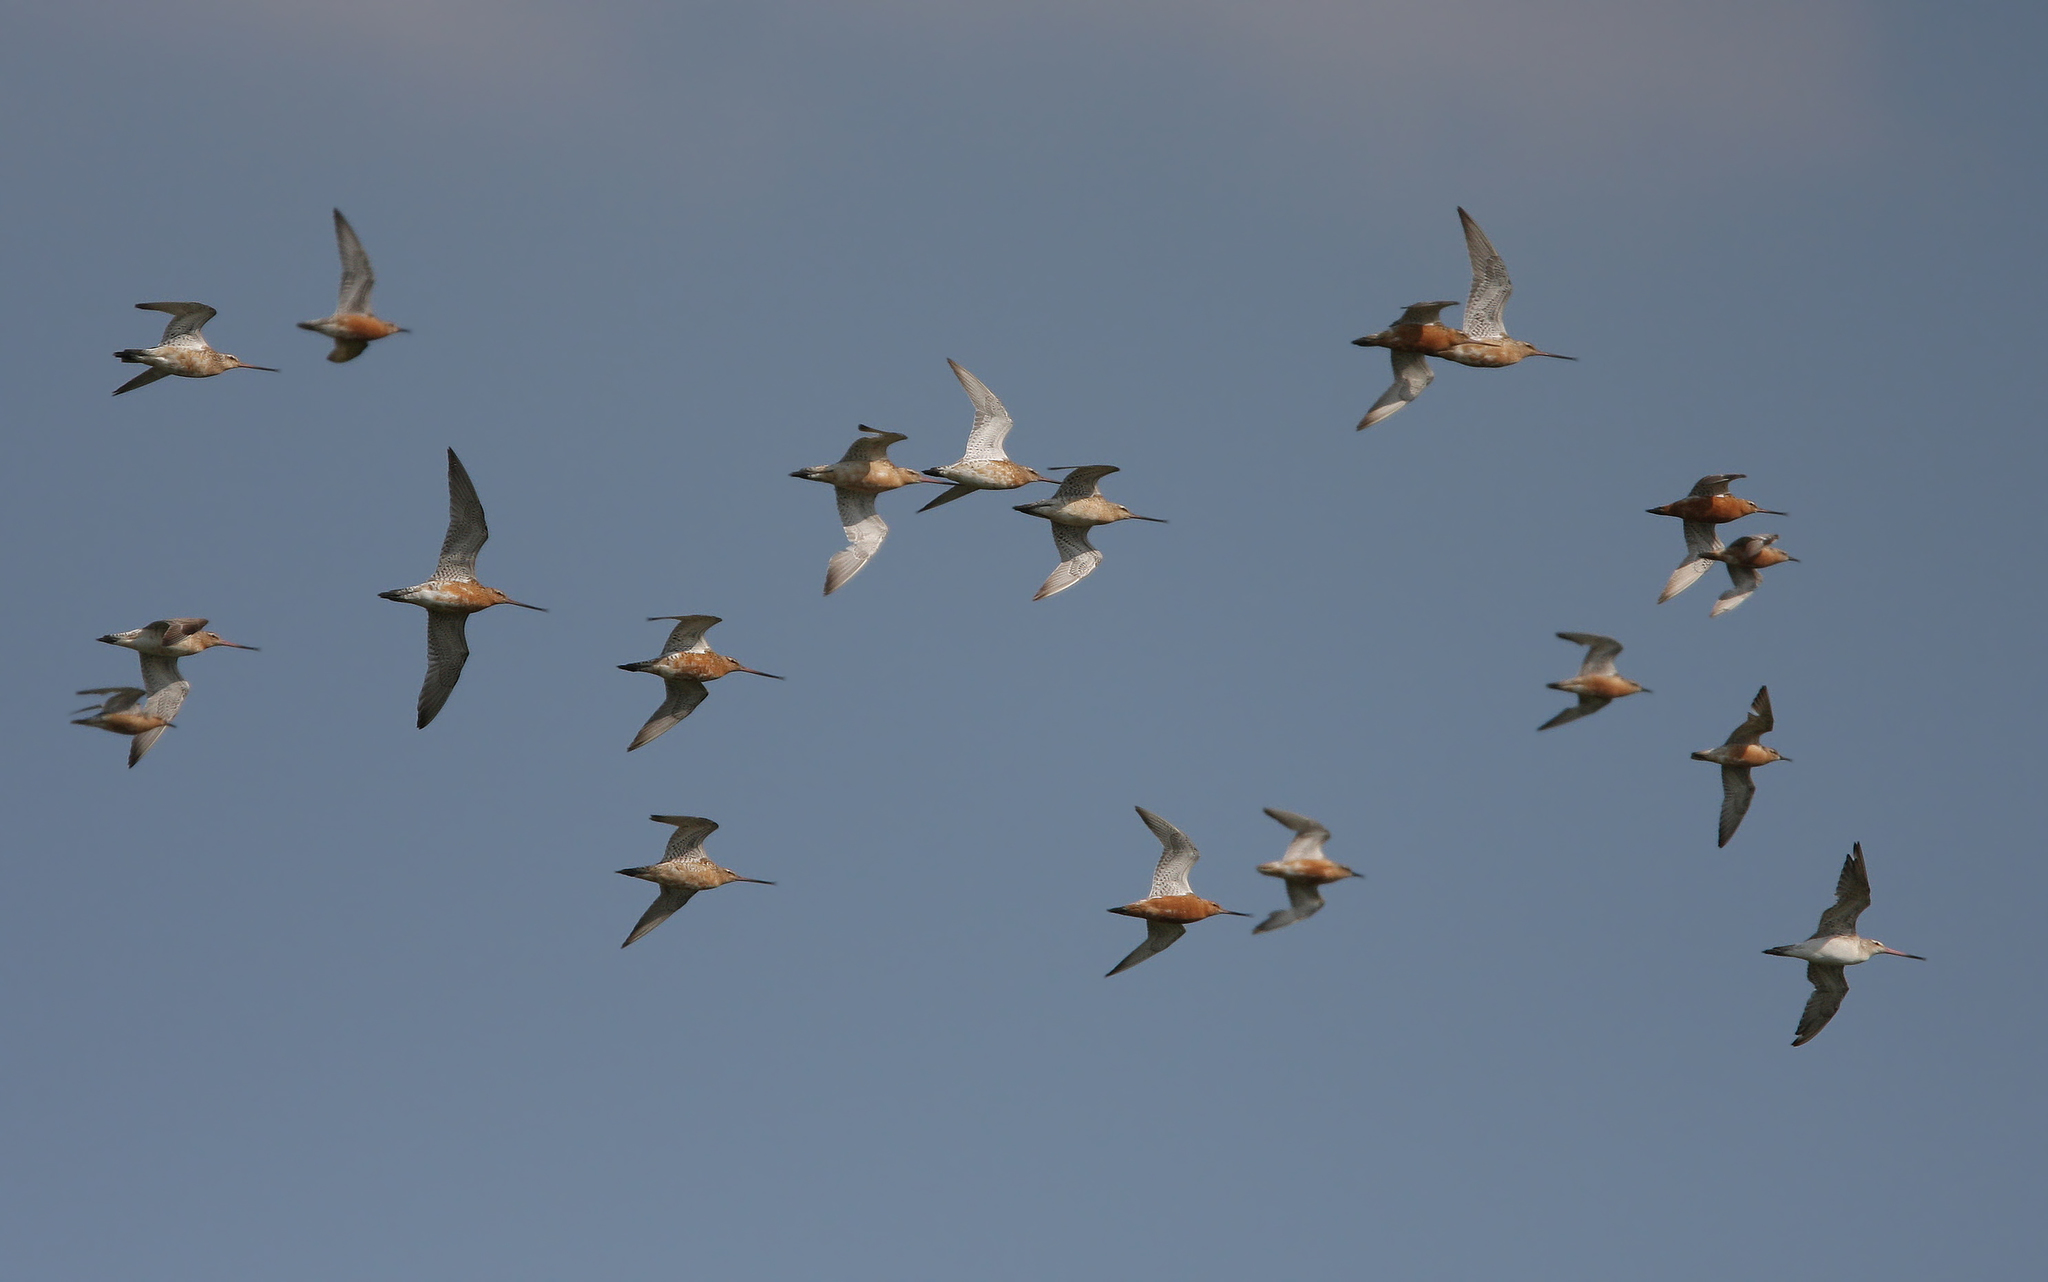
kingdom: Animalia
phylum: Chordata
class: Aves
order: Charadriiformes
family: Scolopacidae
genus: Limosa
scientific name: Limosa lapponica
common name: Bar-tailed godwit
